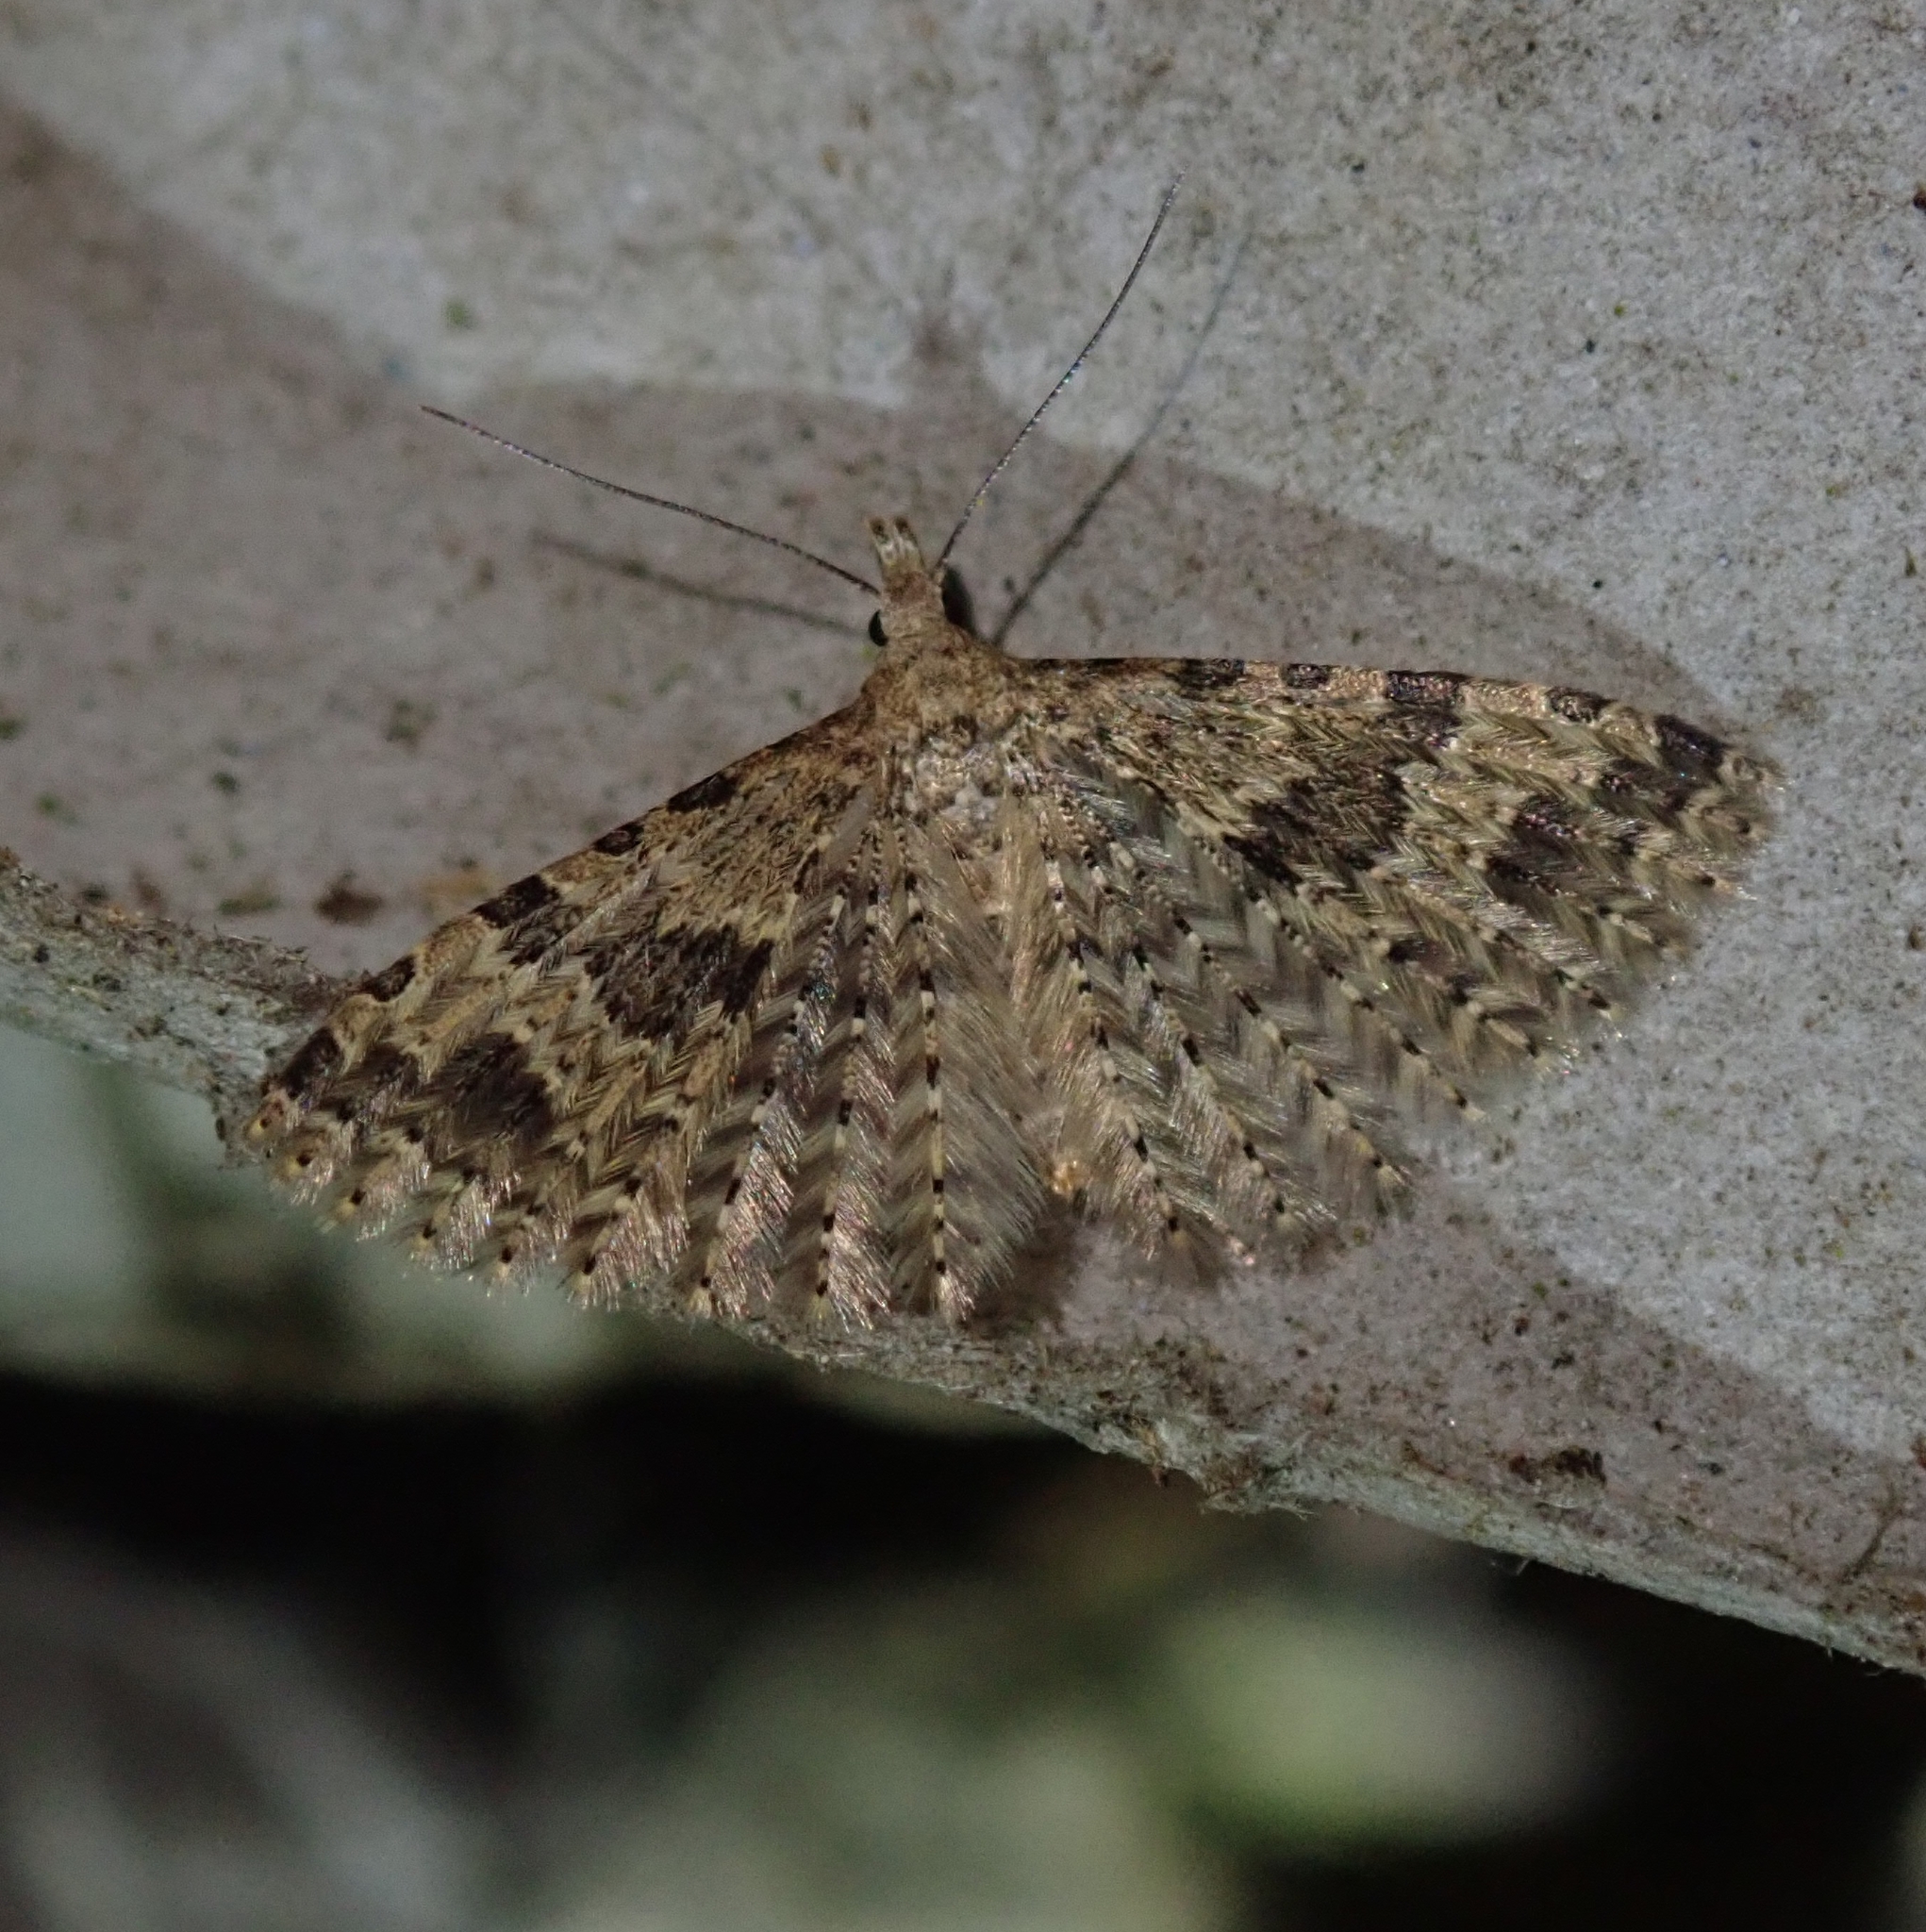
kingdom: Animalia
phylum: Arthropoda
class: Insecta
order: Lepidoptera
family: Alucitidae
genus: Alucita
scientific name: Alucita hexadactyla
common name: Twenty-plume moth
